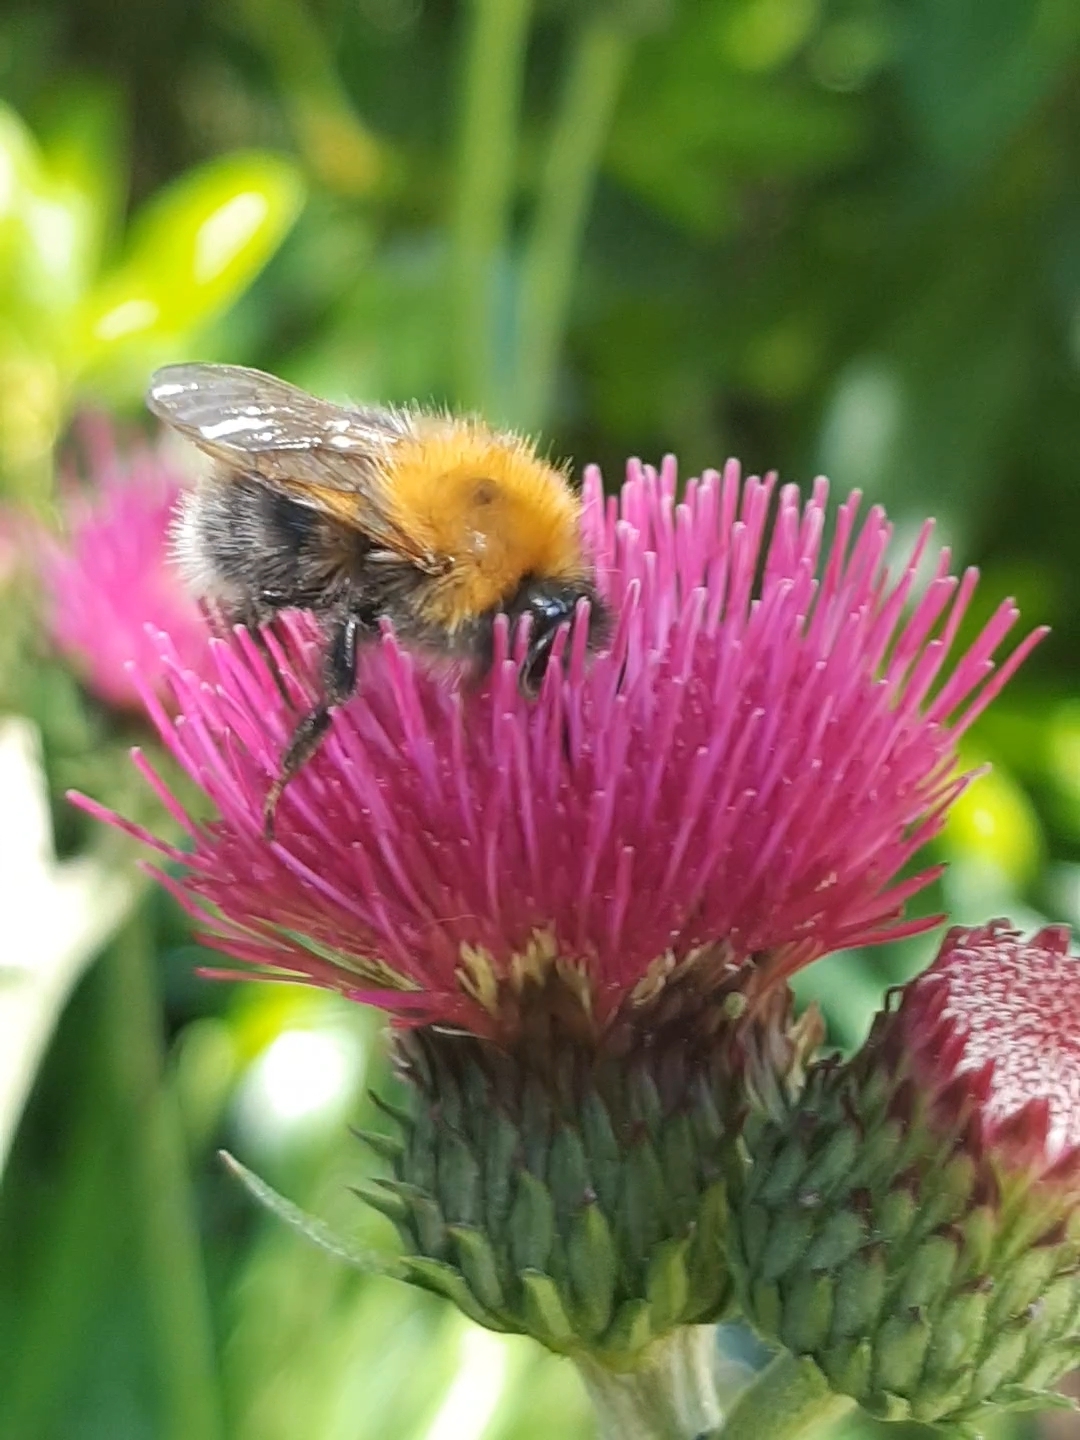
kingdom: Animalia
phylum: Arthropoda
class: Insecta
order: Hymenoptera
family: Apidae
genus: Bombus
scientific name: Bombus hypnorum
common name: New garden bumblebee
